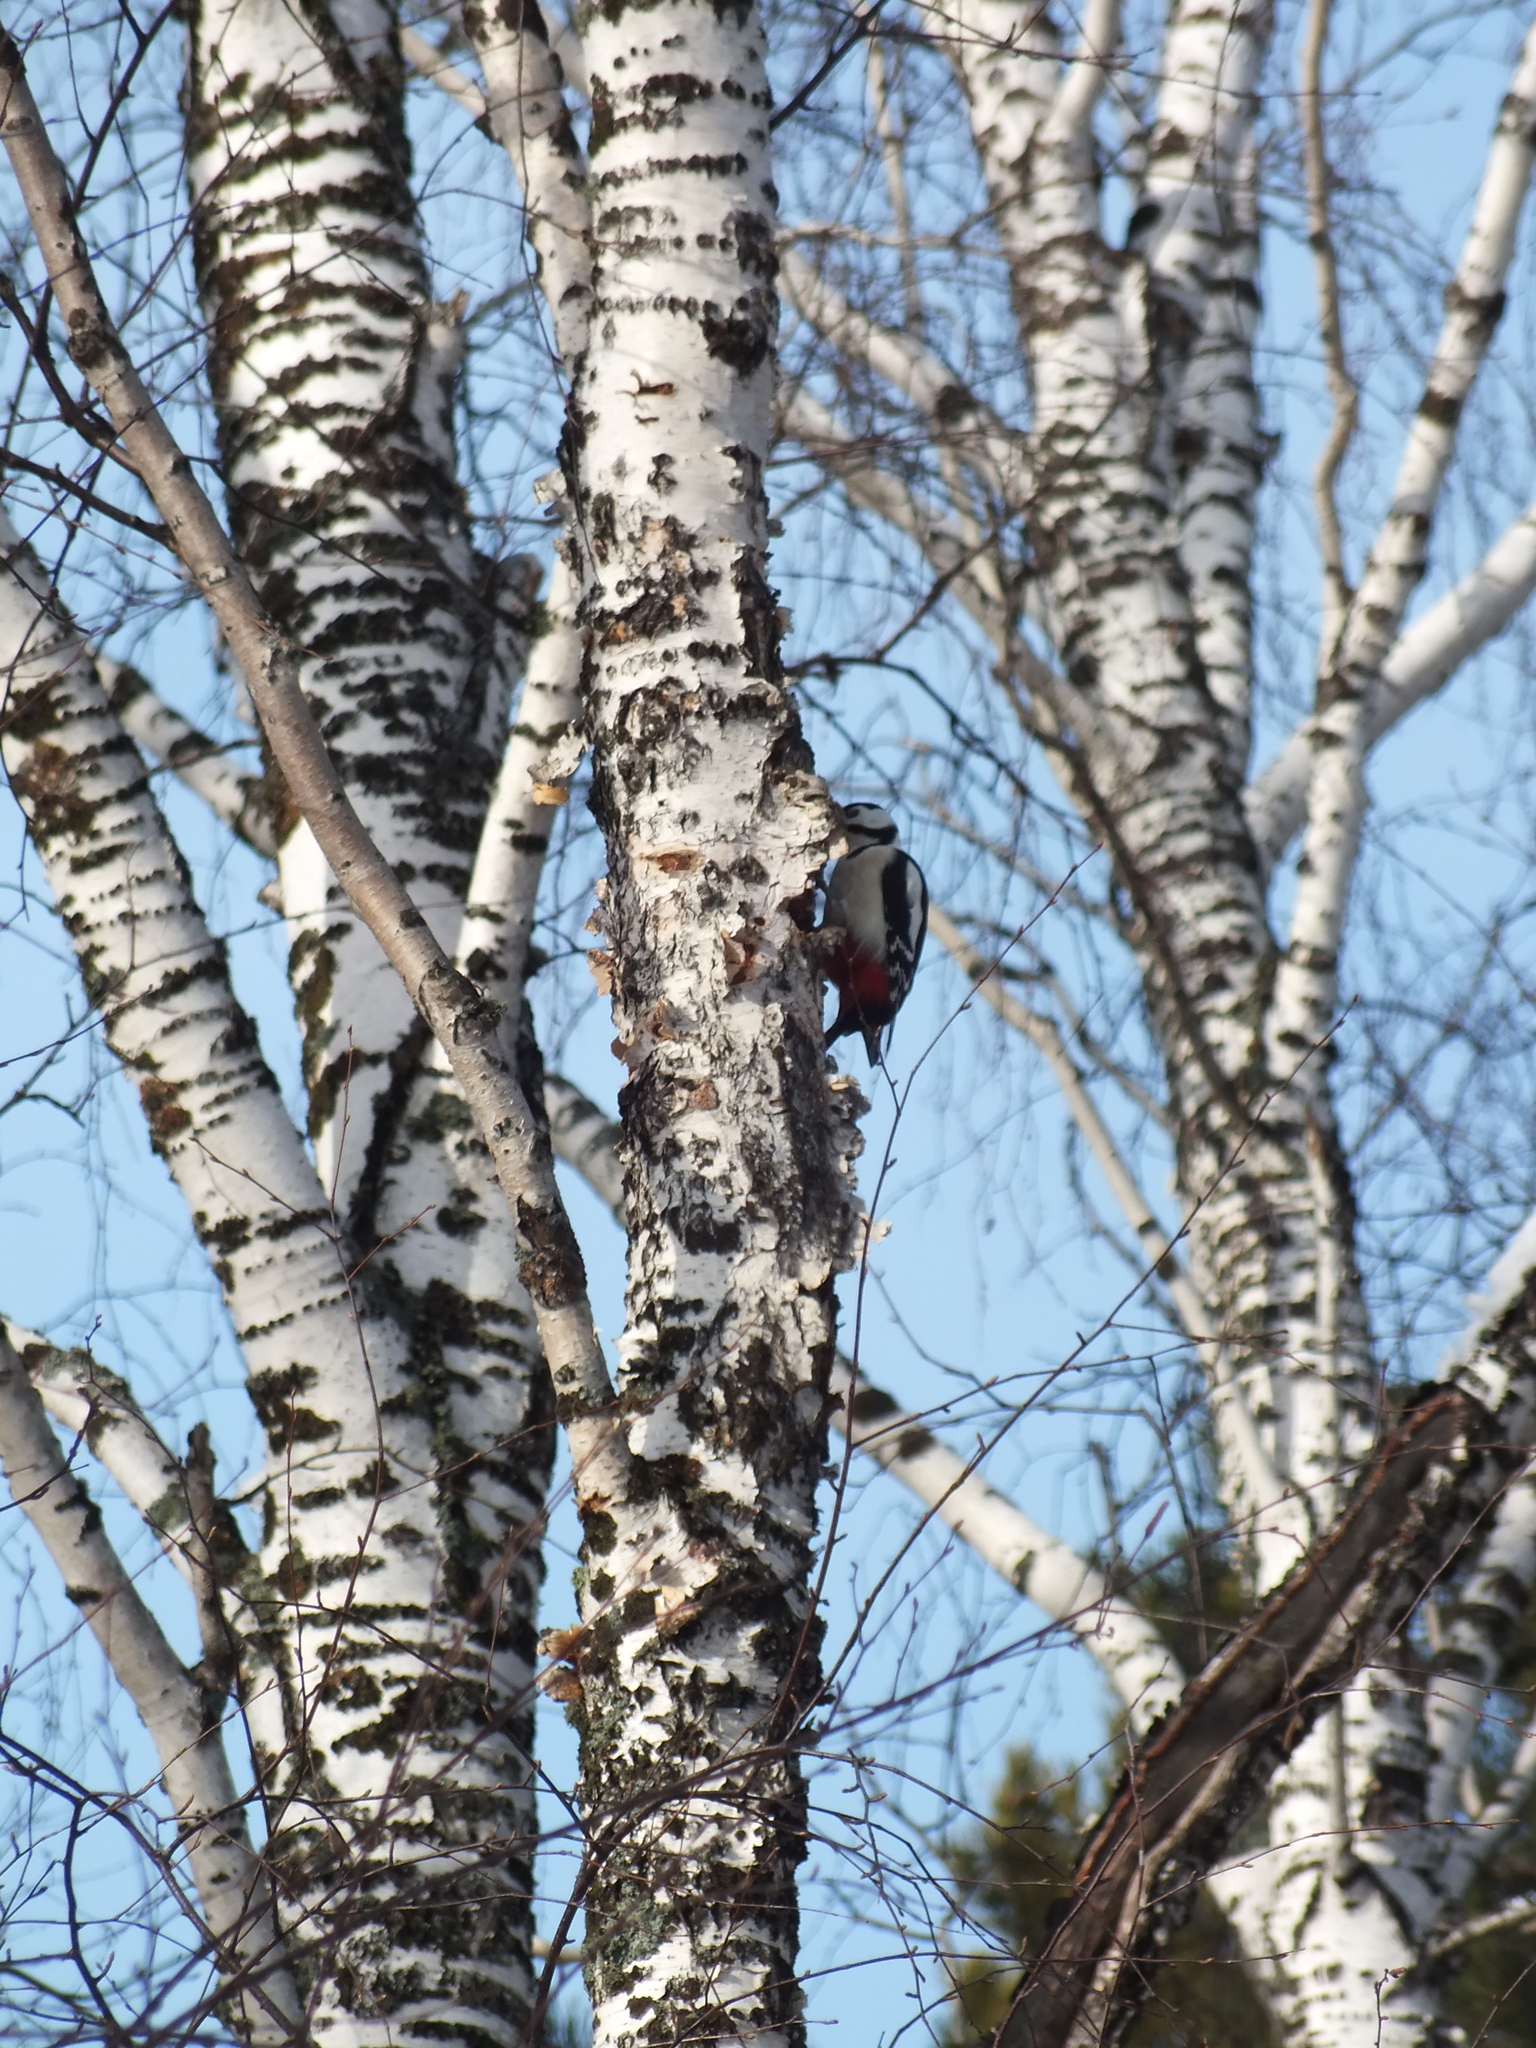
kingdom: Animalia
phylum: Chordata
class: Aves
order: Piciformes
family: Picidae
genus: Dendrocopos
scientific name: Dendrocopos major
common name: Great spotted woodpecker
